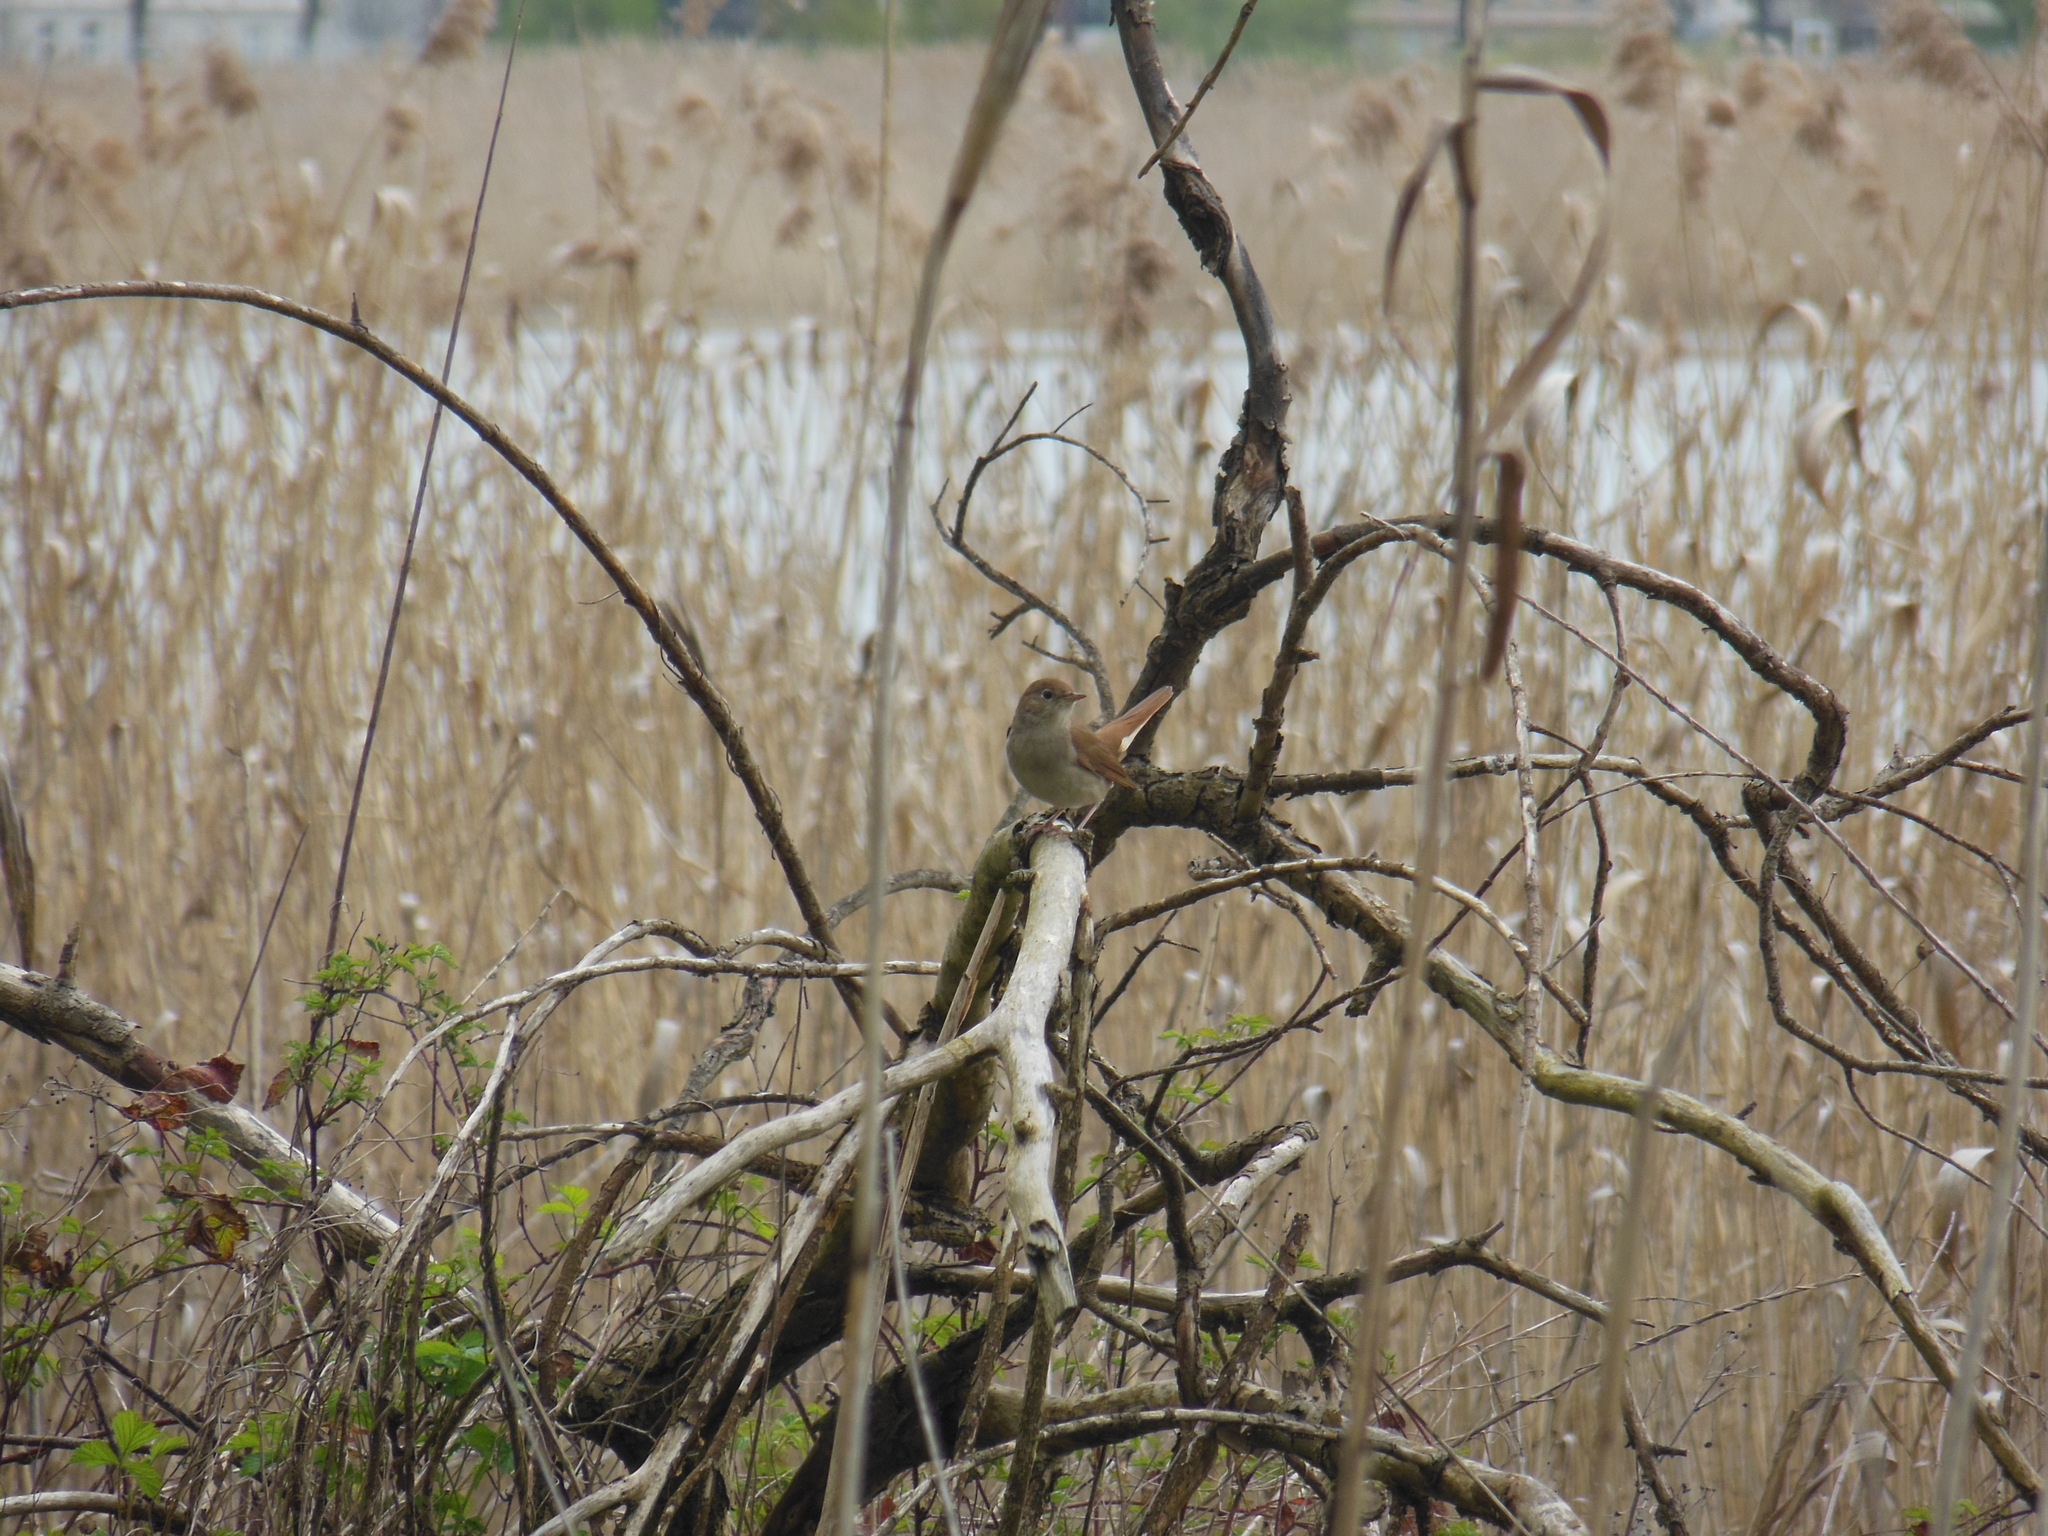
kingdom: Animalia
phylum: Chordata
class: Aves
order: Passeriformes
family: Muscicapidae
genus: Luscinia
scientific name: Luscinia megarhynchos
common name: Common nightingale
